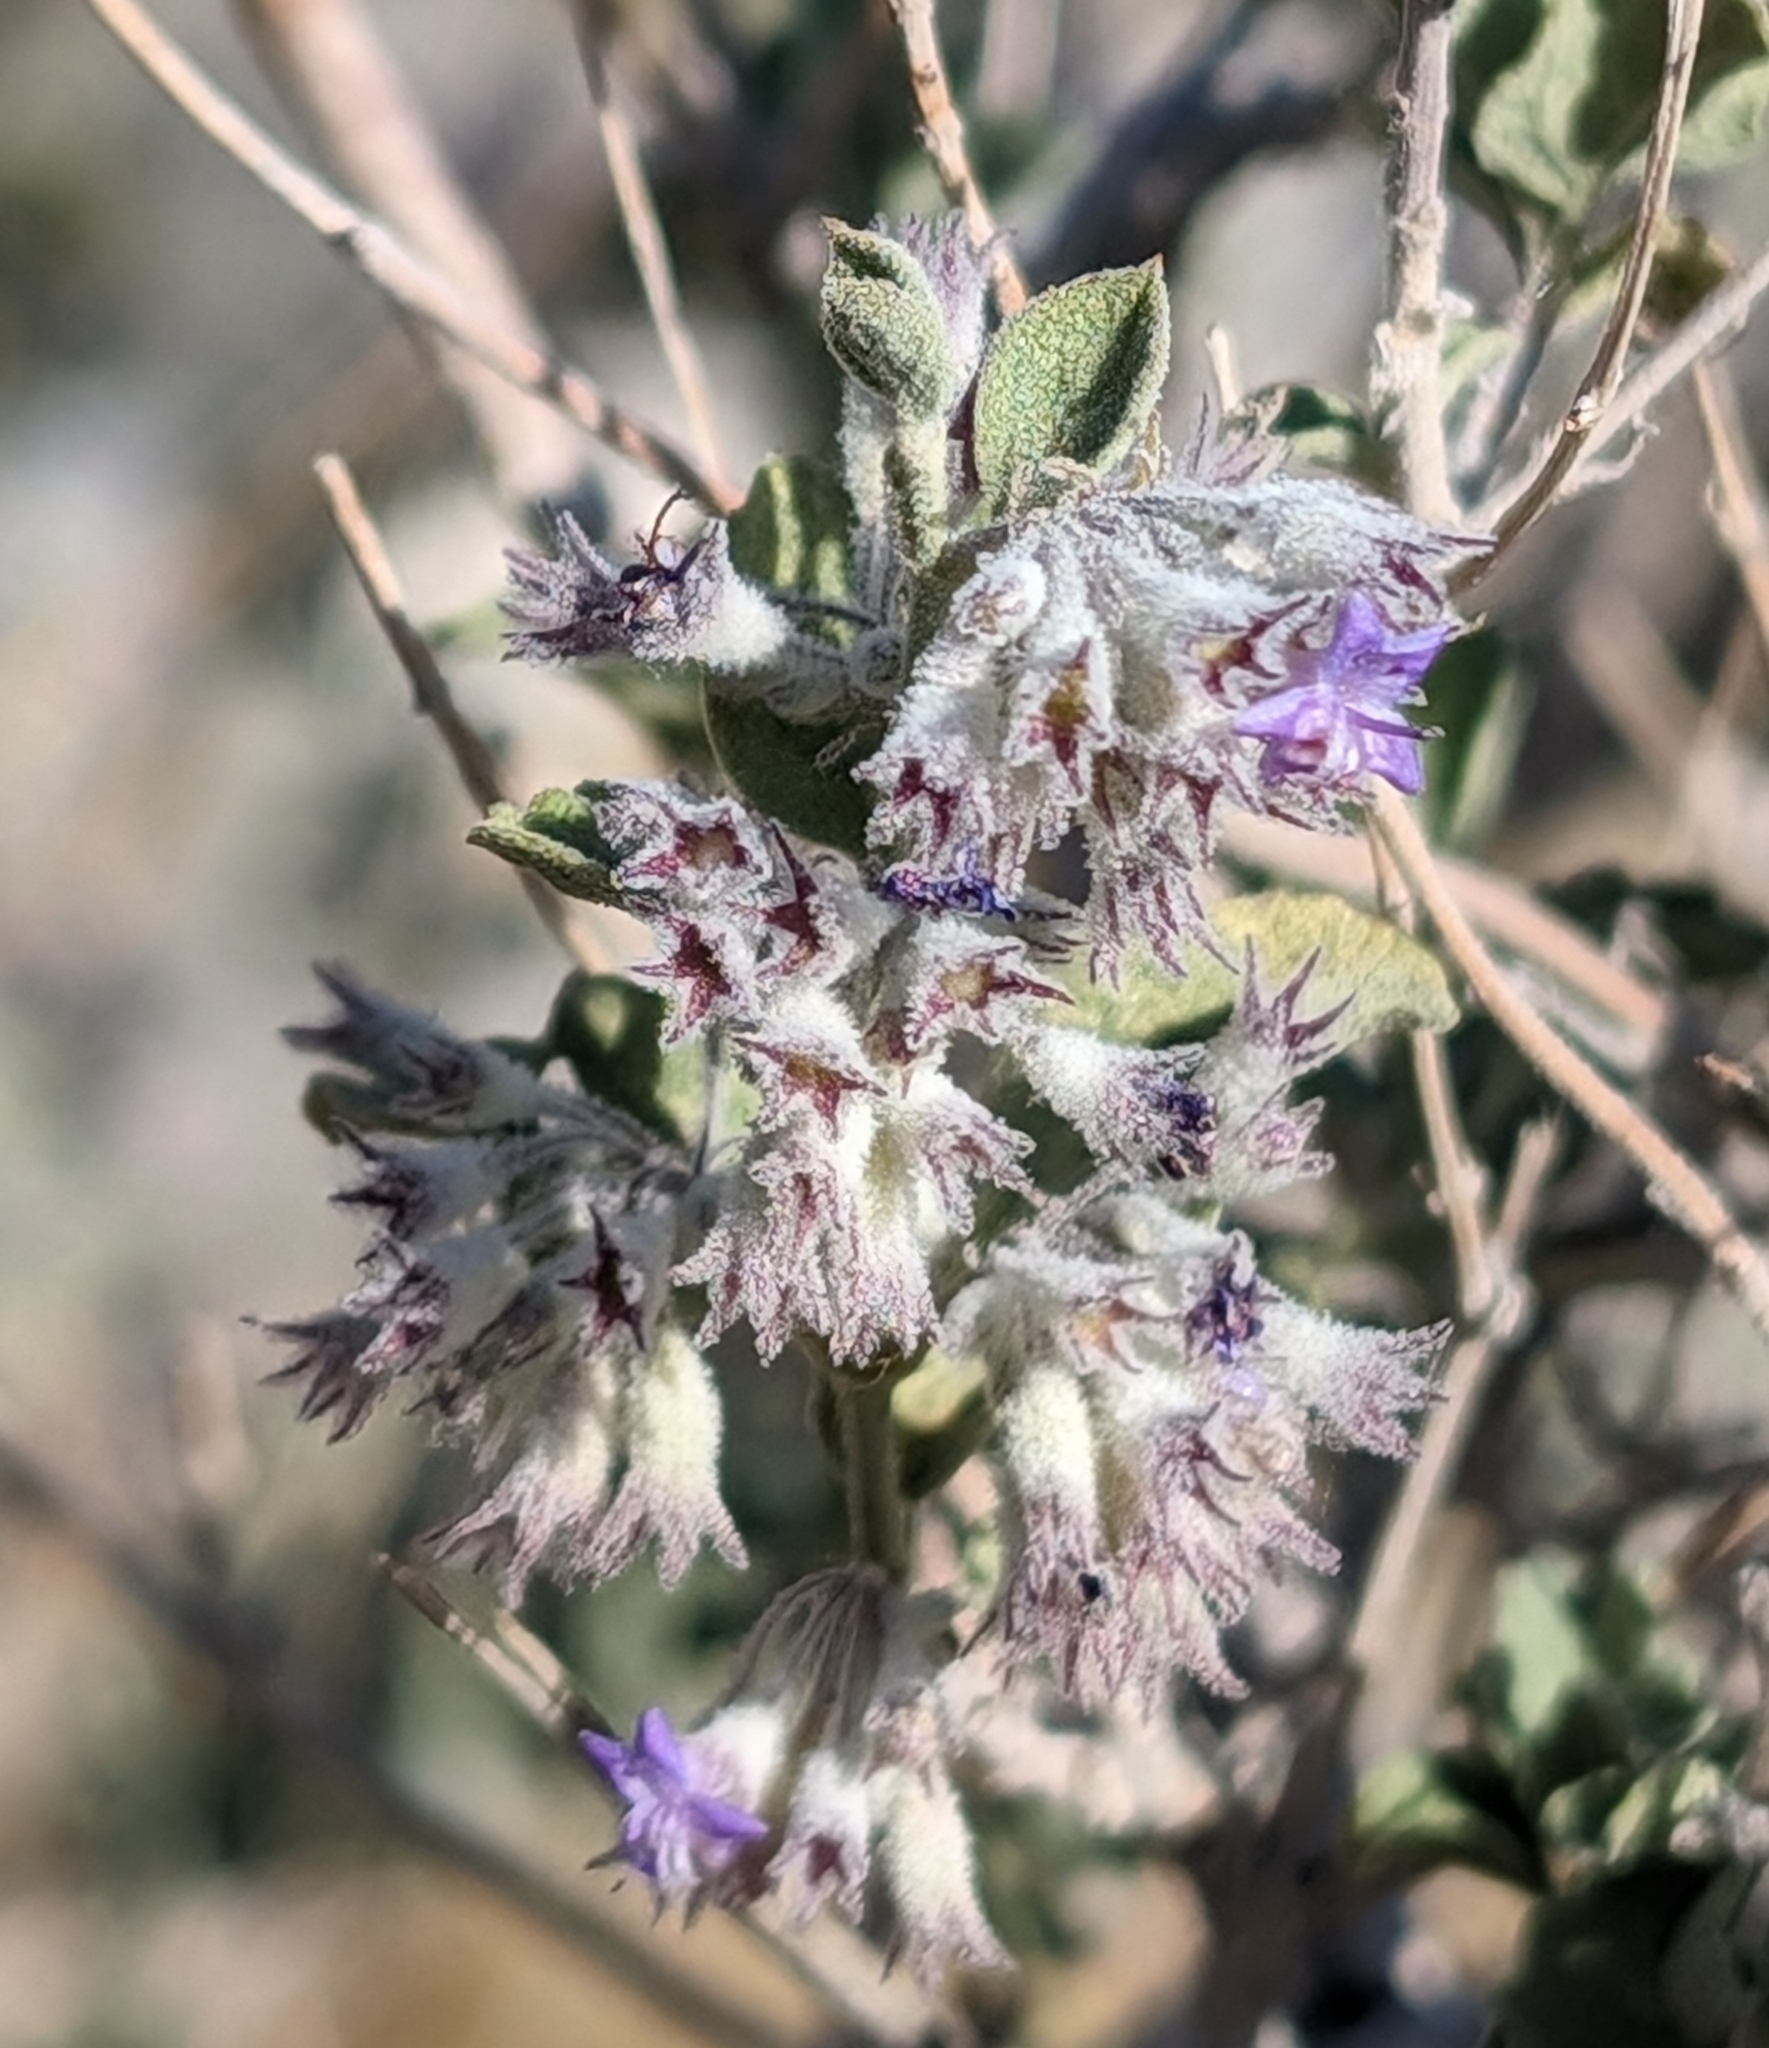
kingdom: Plantae
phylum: Tracheophyta
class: Magnoliopsida
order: Lamiales
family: Lamiaceae
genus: Condea
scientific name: Condea emoryi
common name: Chia
